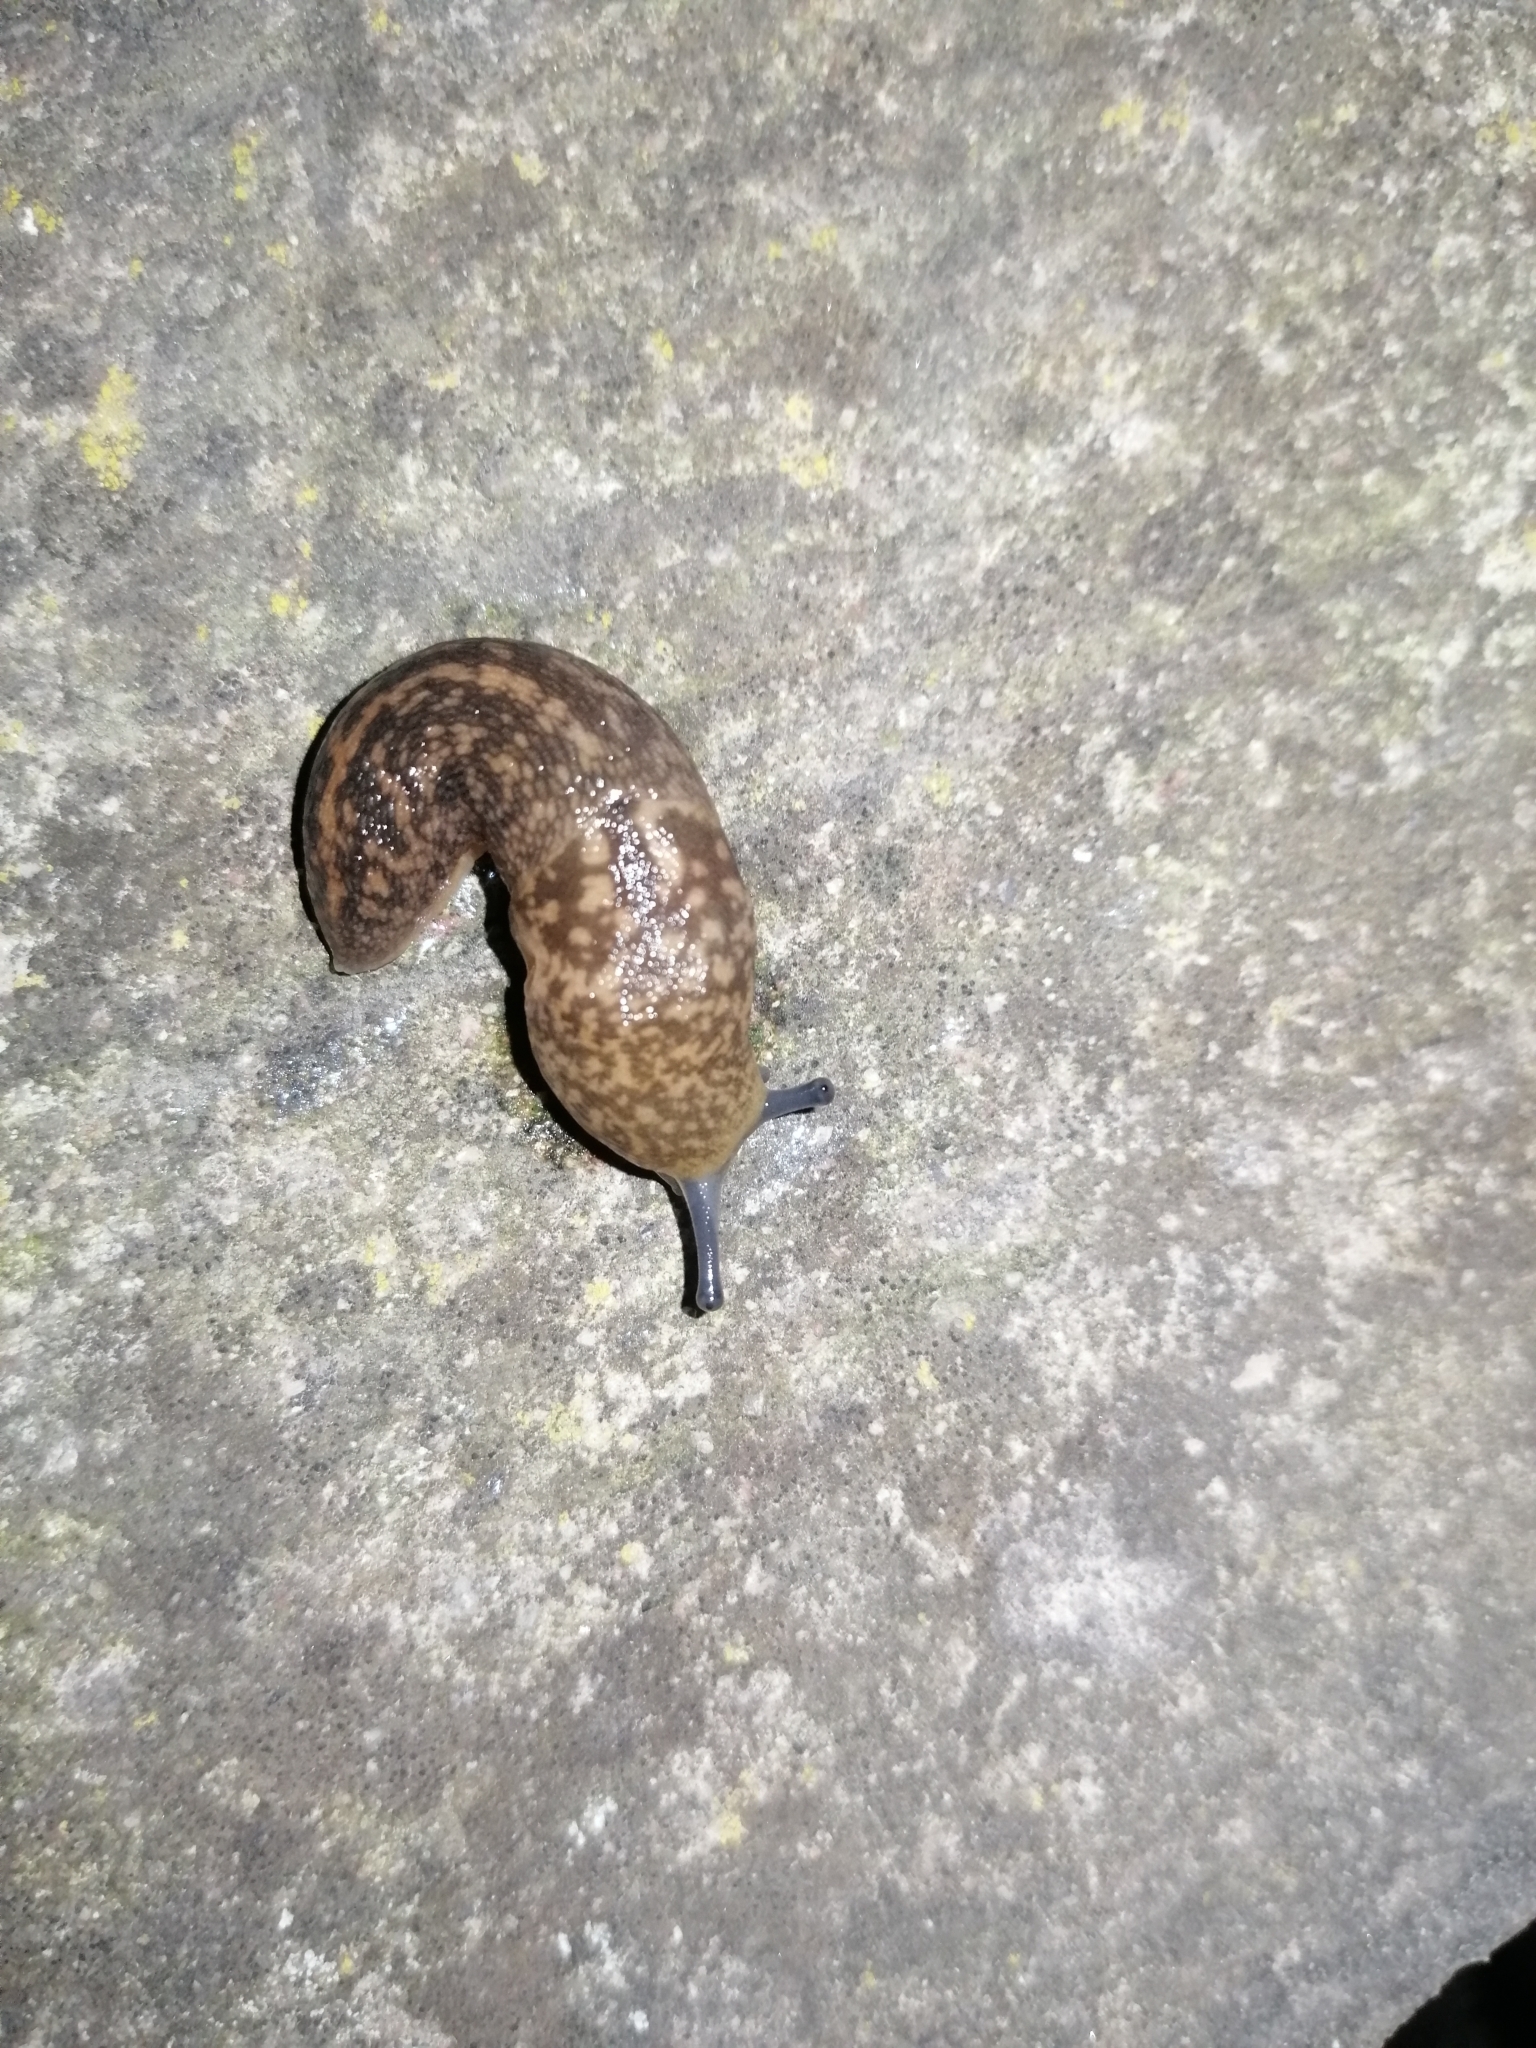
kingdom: Animalia
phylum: Mollusca
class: Gastropoda
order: Stylommatophora
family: Limacidae
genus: Limacus
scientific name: Limacus flavus
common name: Yellow gardenslug
